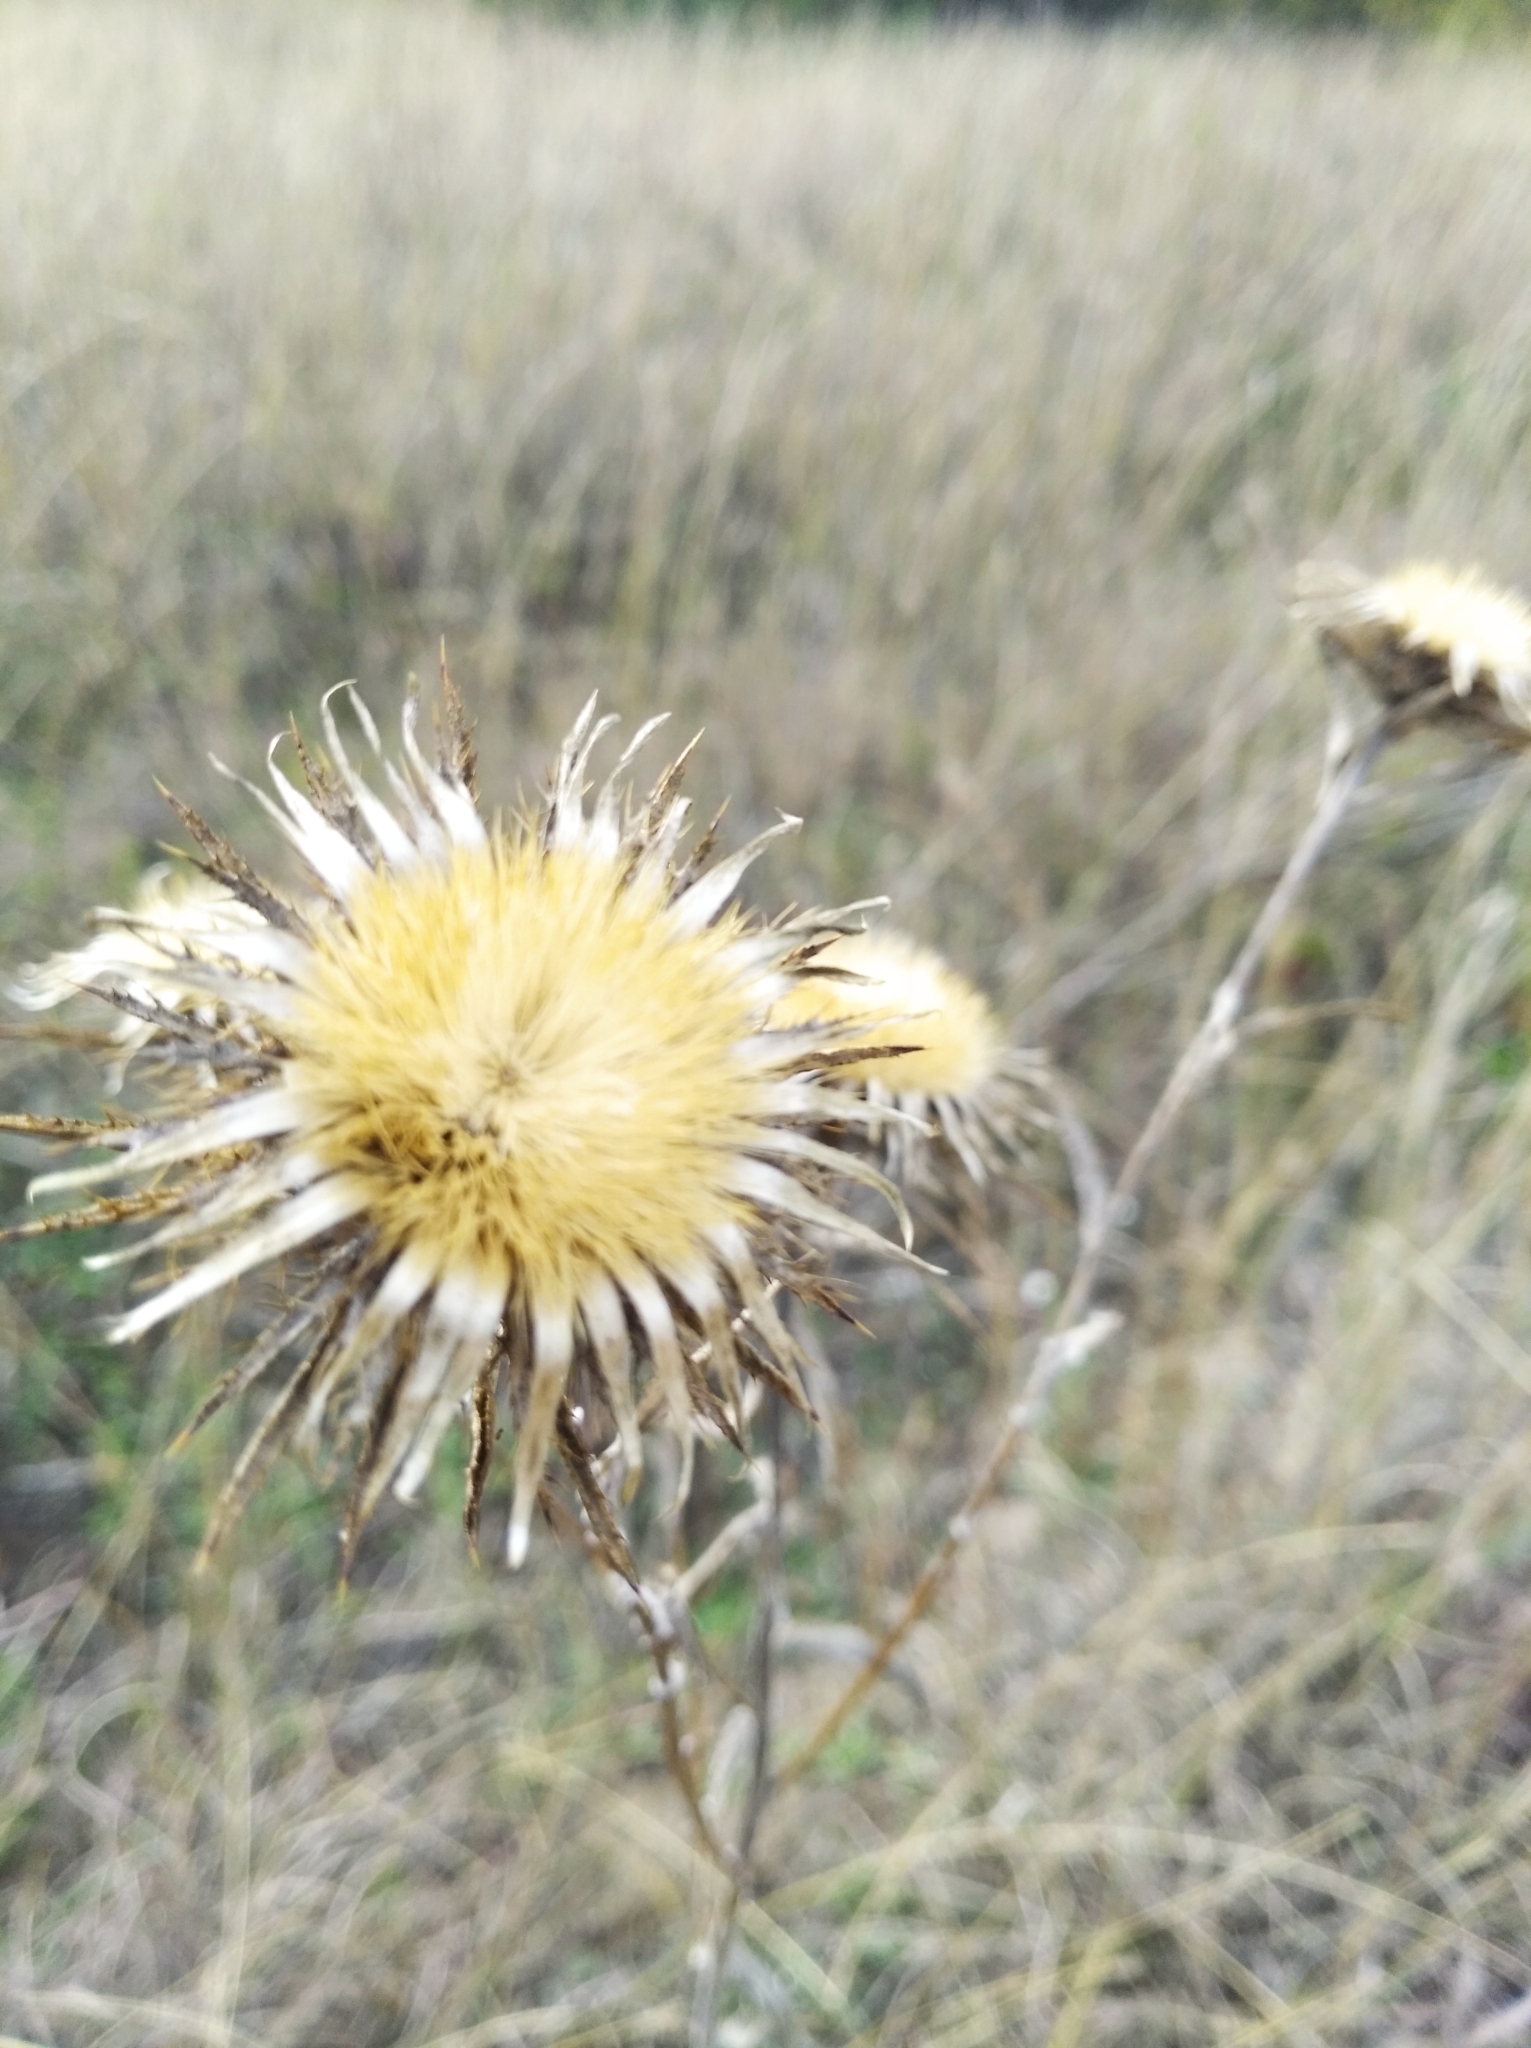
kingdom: Plantae
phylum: Tracheophyta
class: Magnoliopsida
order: Asterales
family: Asteraceae
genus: Carlina
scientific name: Carlina biebersteinii
